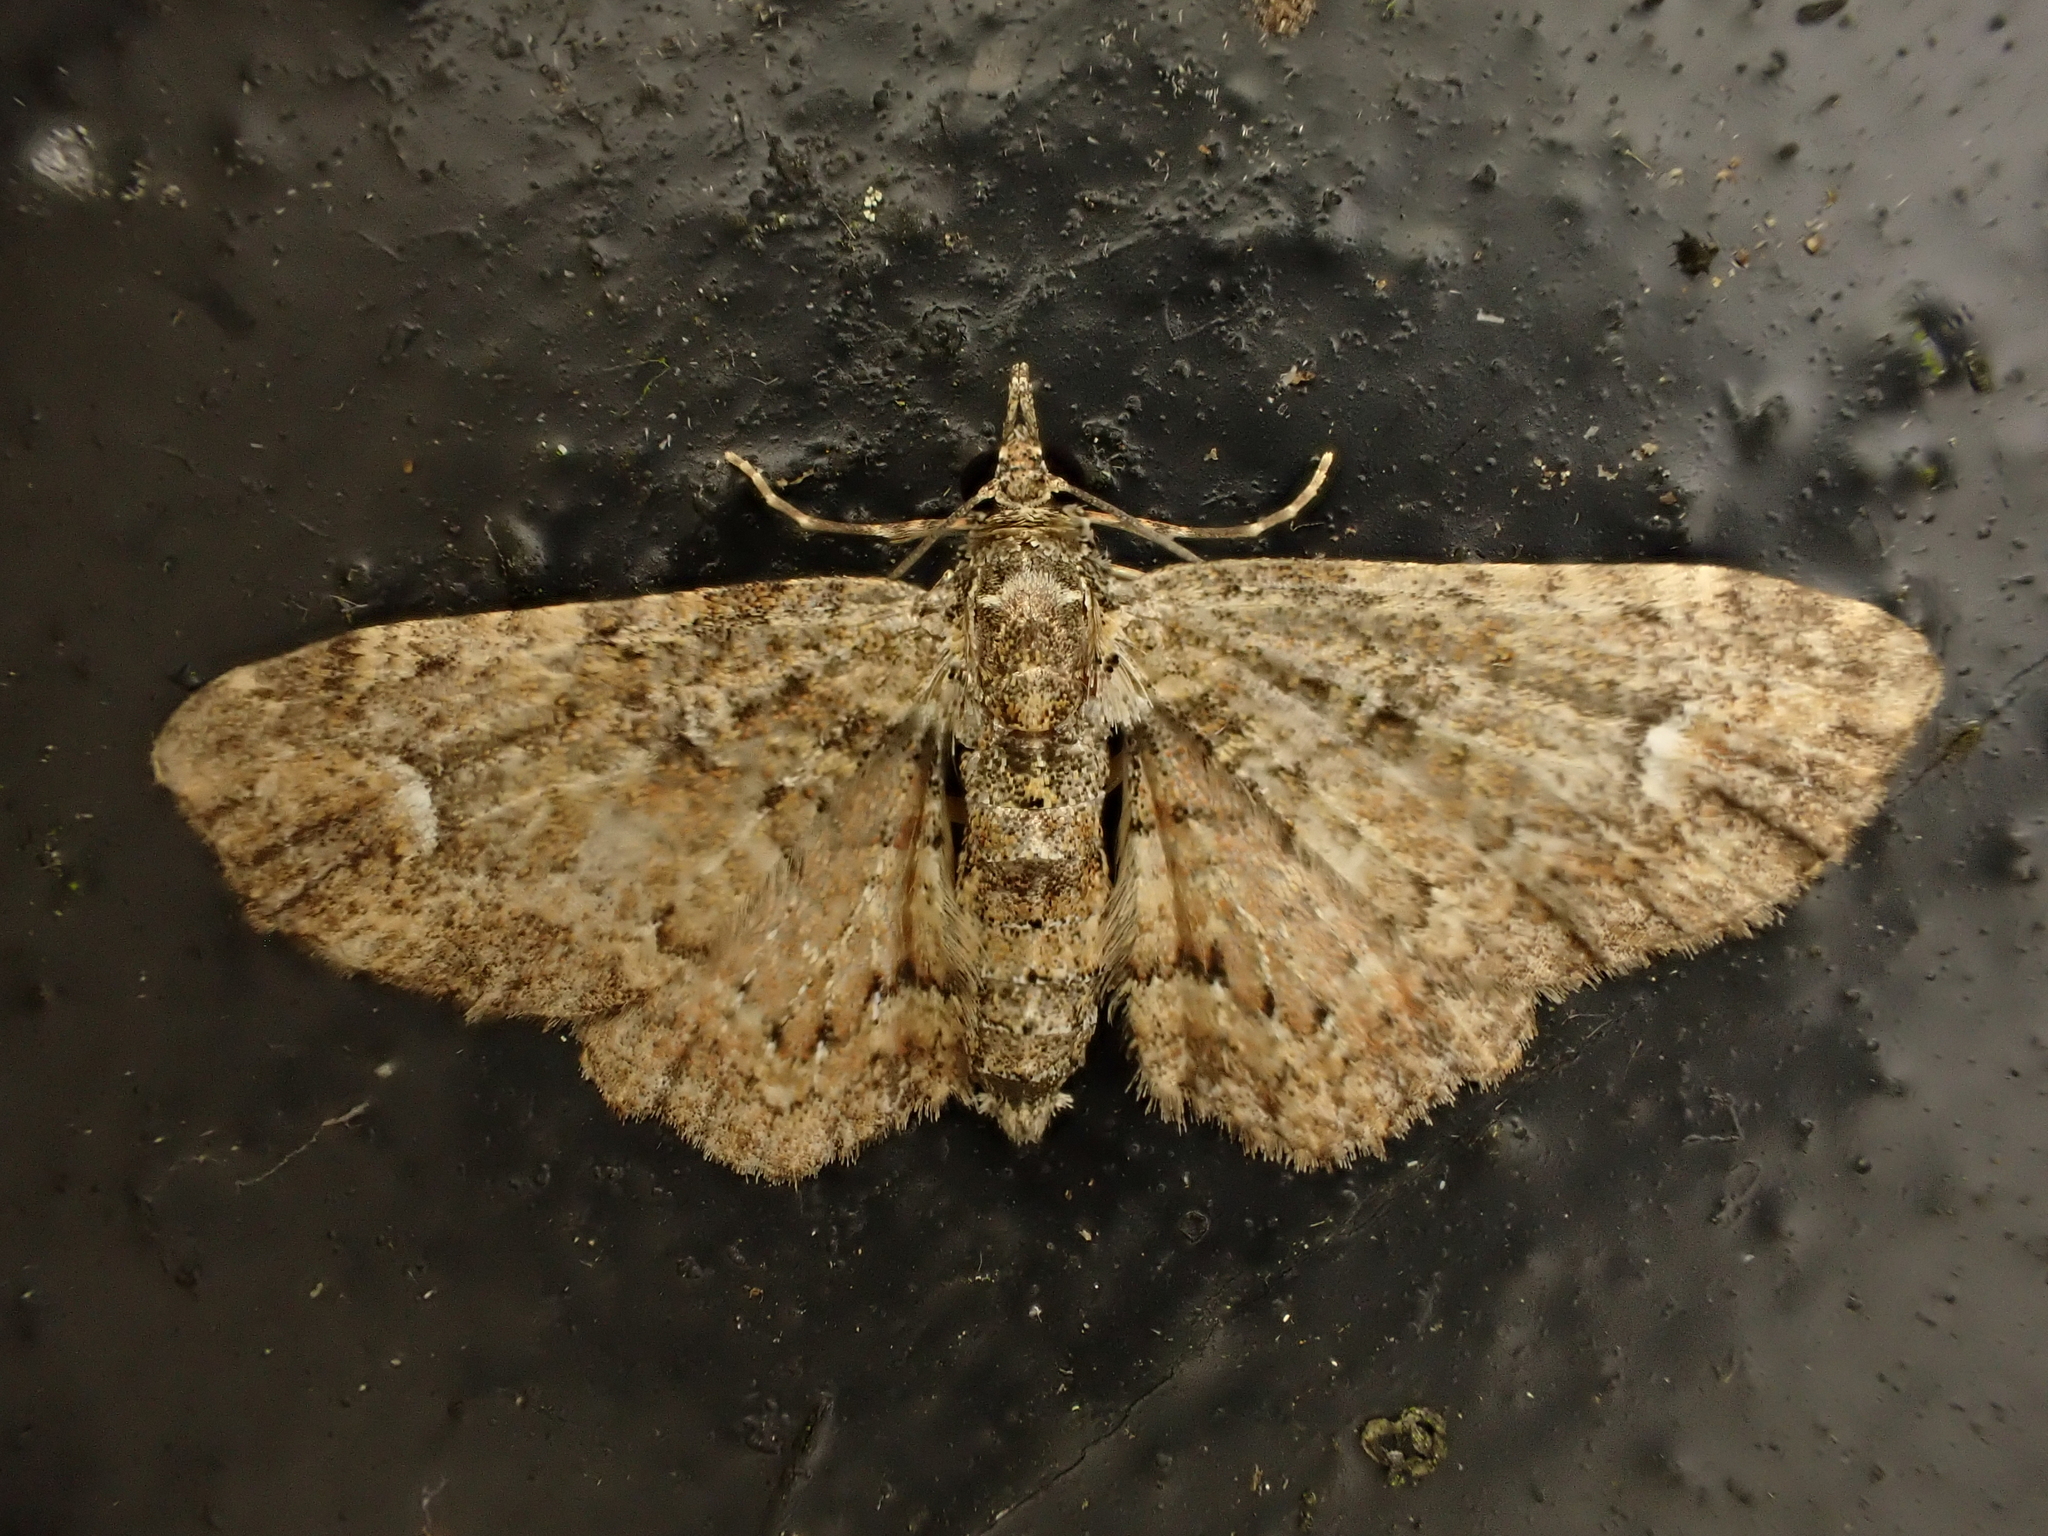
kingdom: Animalia
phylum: Arthropoda
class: Insecta
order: Lepidoptera
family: Geometridae
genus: Pasiphilodes
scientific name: Pasiphilodes testulata
